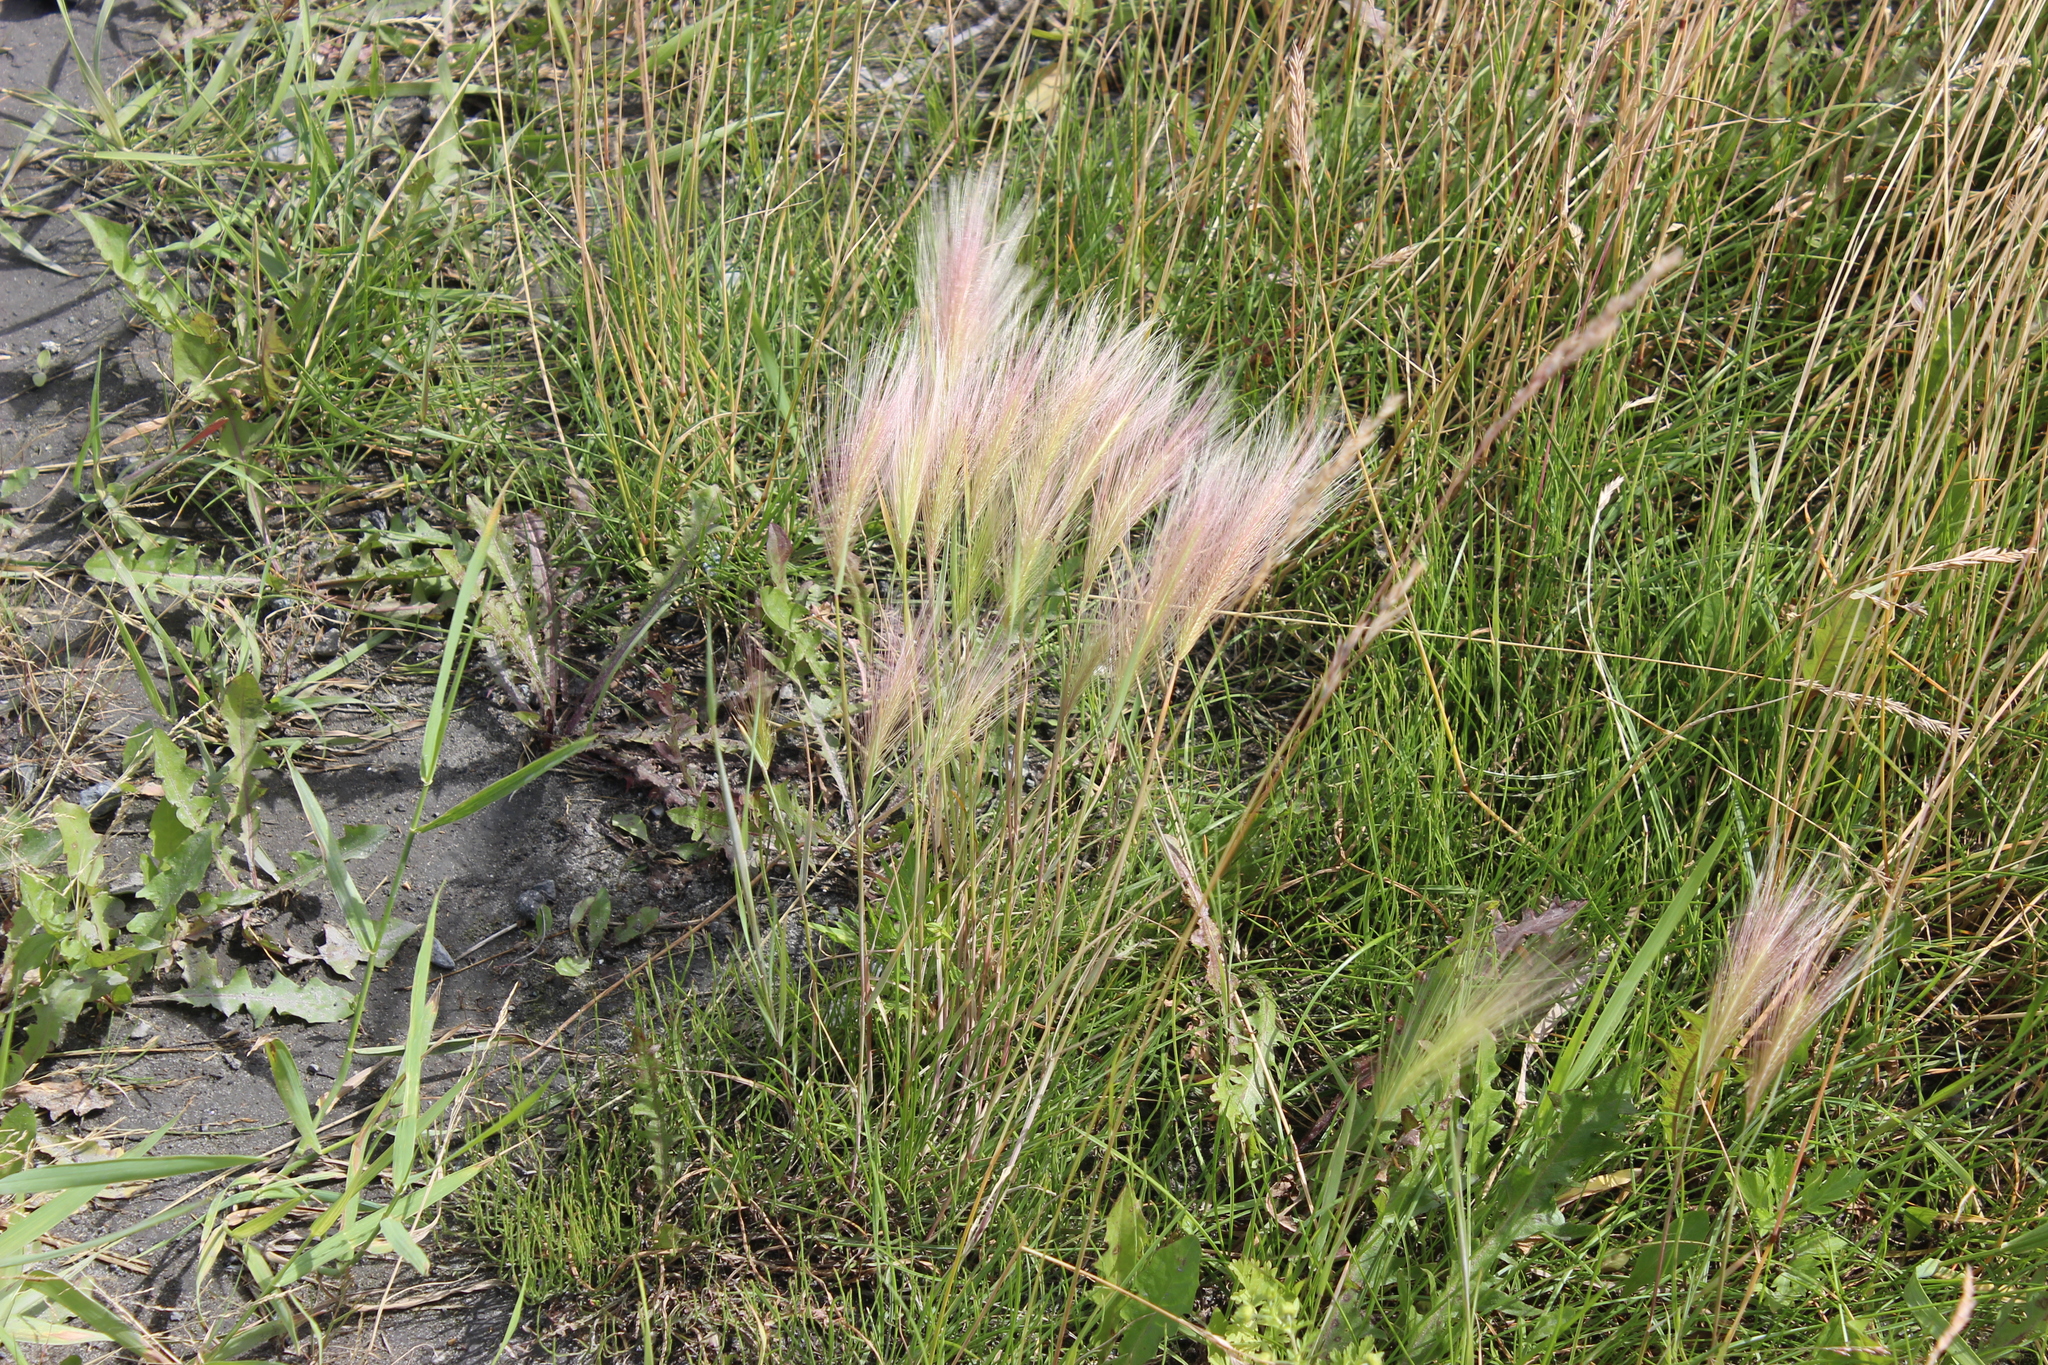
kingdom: Plantae
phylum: Tracheophyta
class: Liliopsida
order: Poales
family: Poaceae
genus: Hordeum
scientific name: Hordeum jubatum
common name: Foxtail barley
